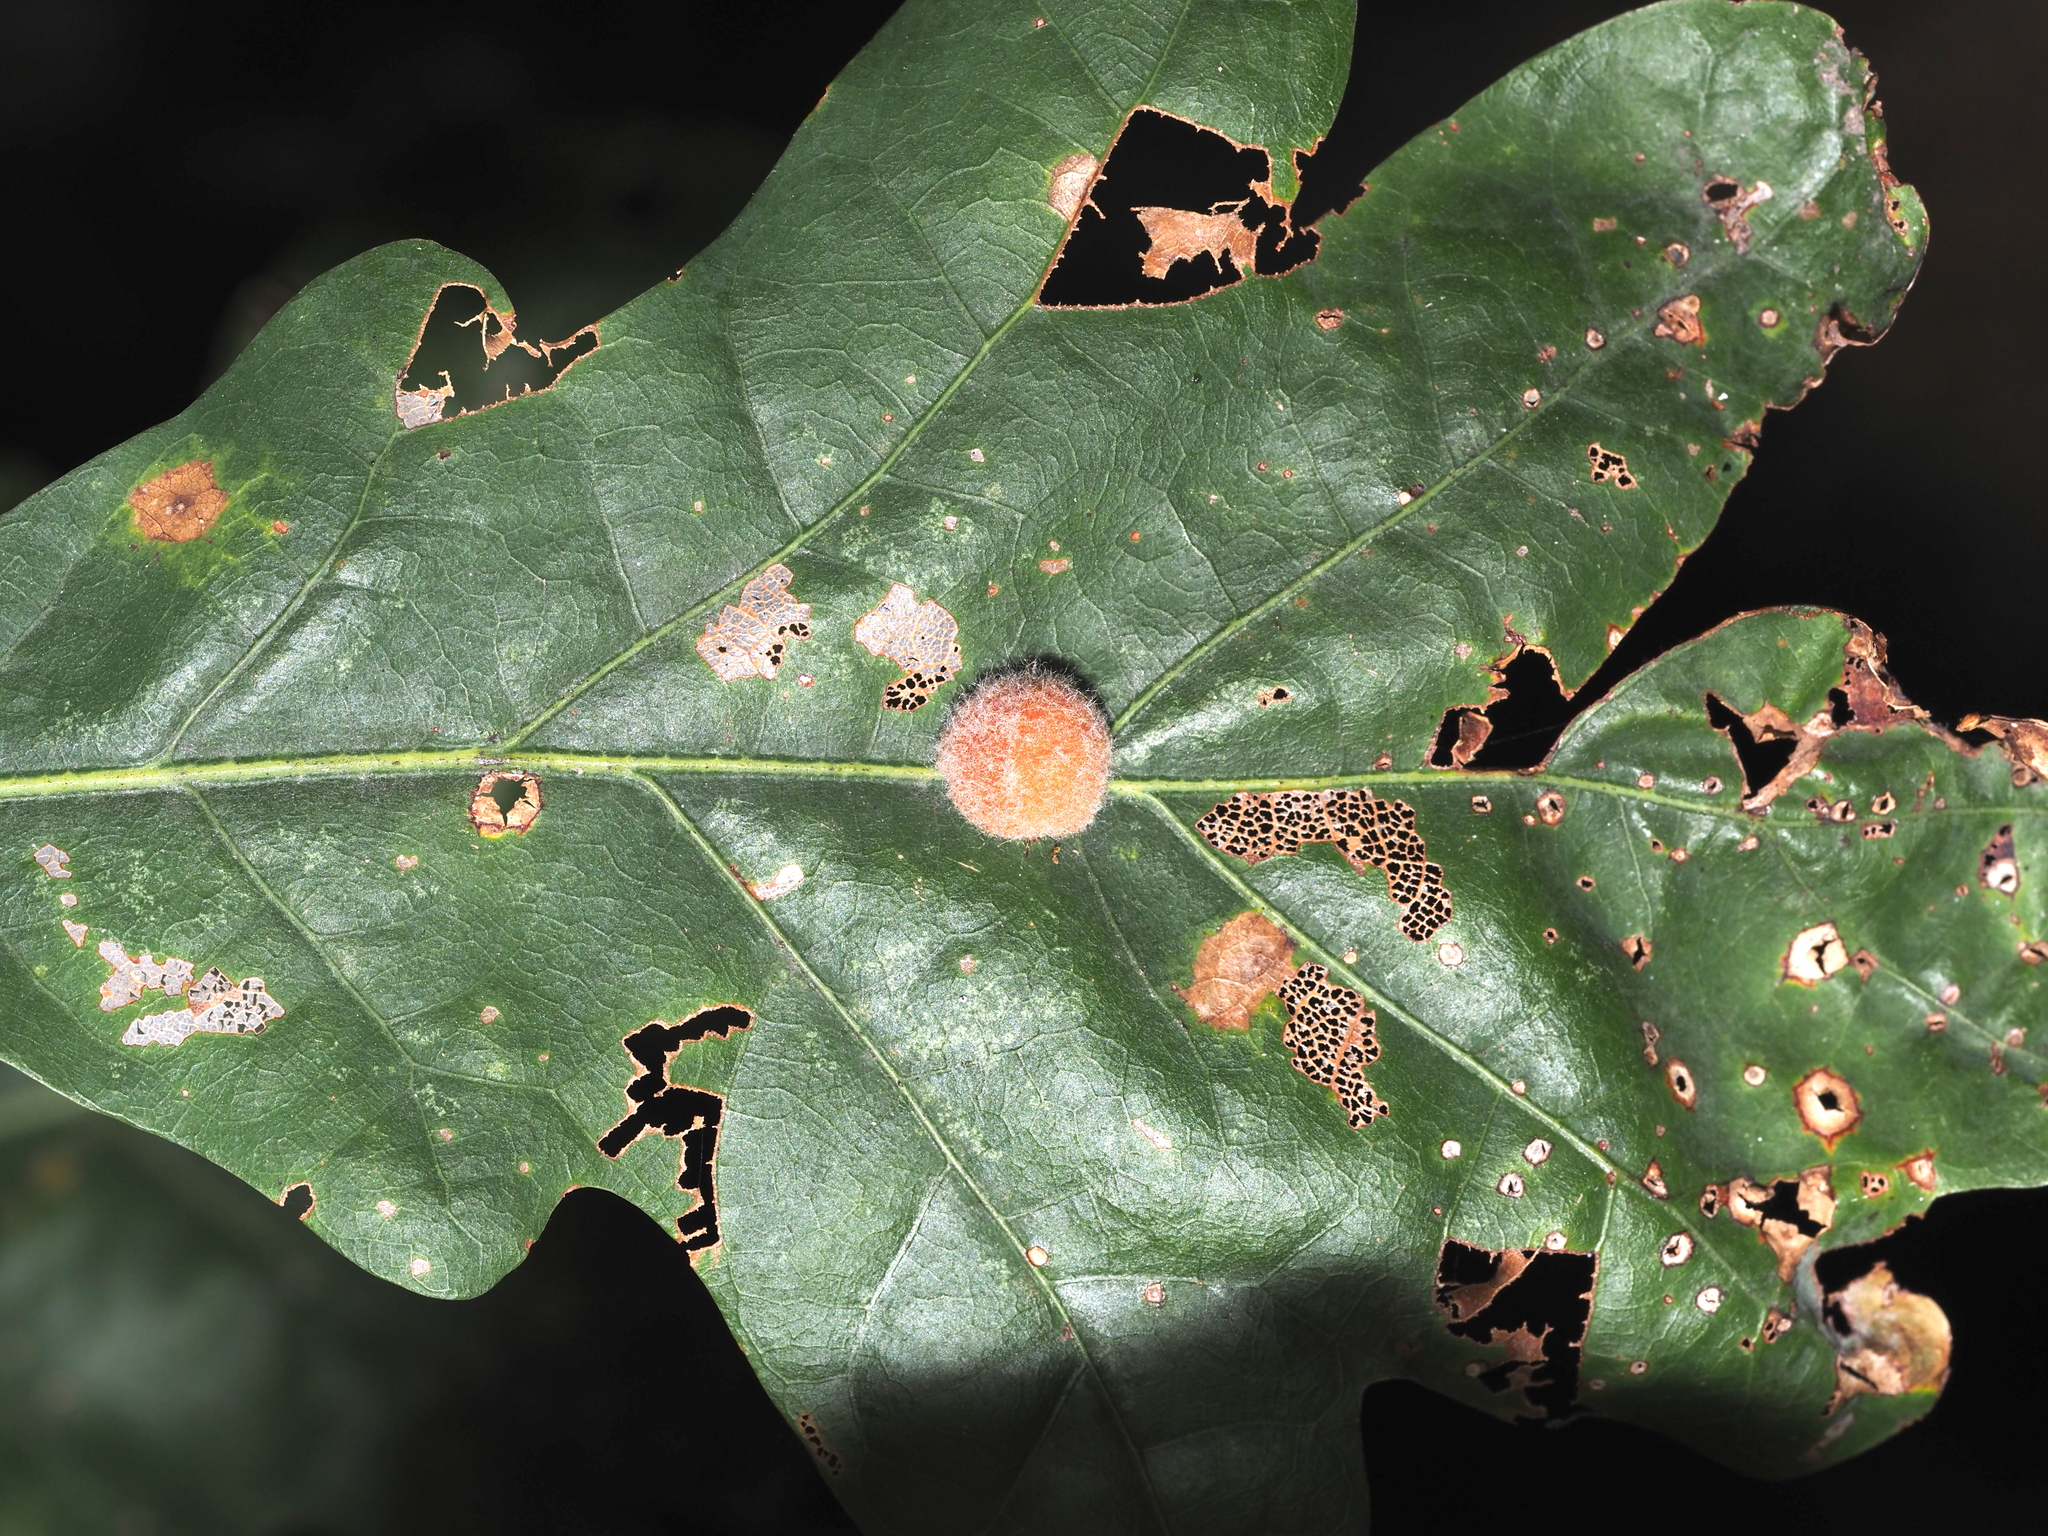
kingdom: Animalia
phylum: Arthropoda
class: Insecta
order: Hymenoptera
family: Cynipidae
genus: Andricus
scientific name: Andricus quercusflocci
